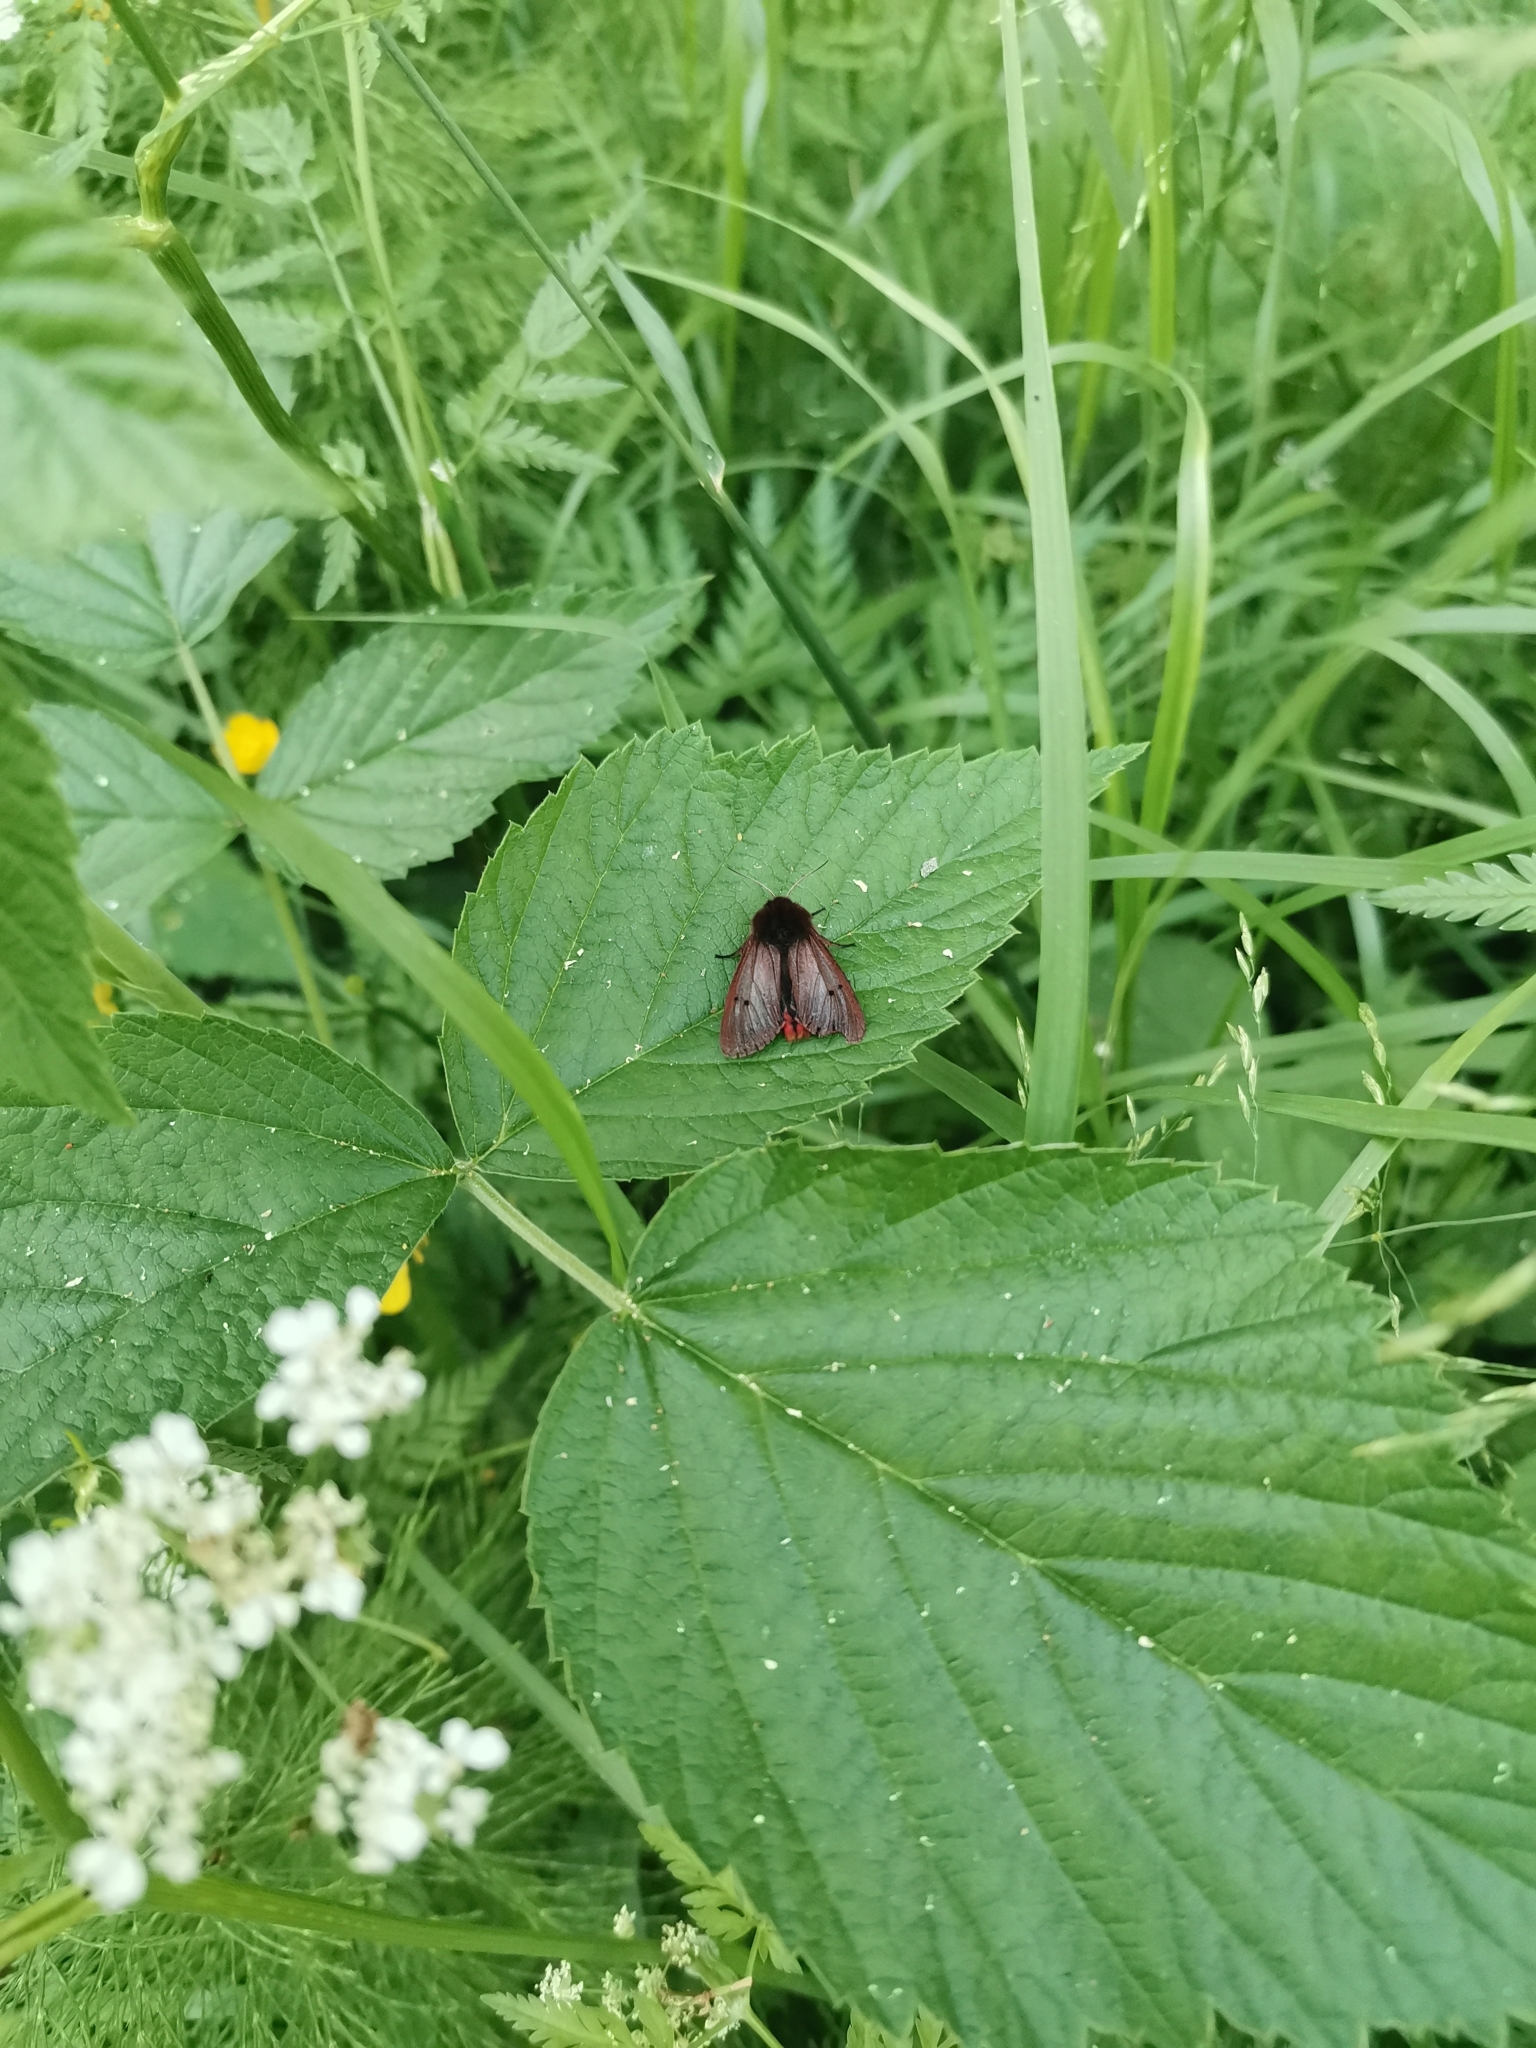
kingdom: Animalia
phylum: Arthropoda
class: Insecta
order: Lepidoptera
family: Erebidae
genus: Phragmatobia
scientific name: Phragmatobia fuliginosa
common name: Ruby tiger
